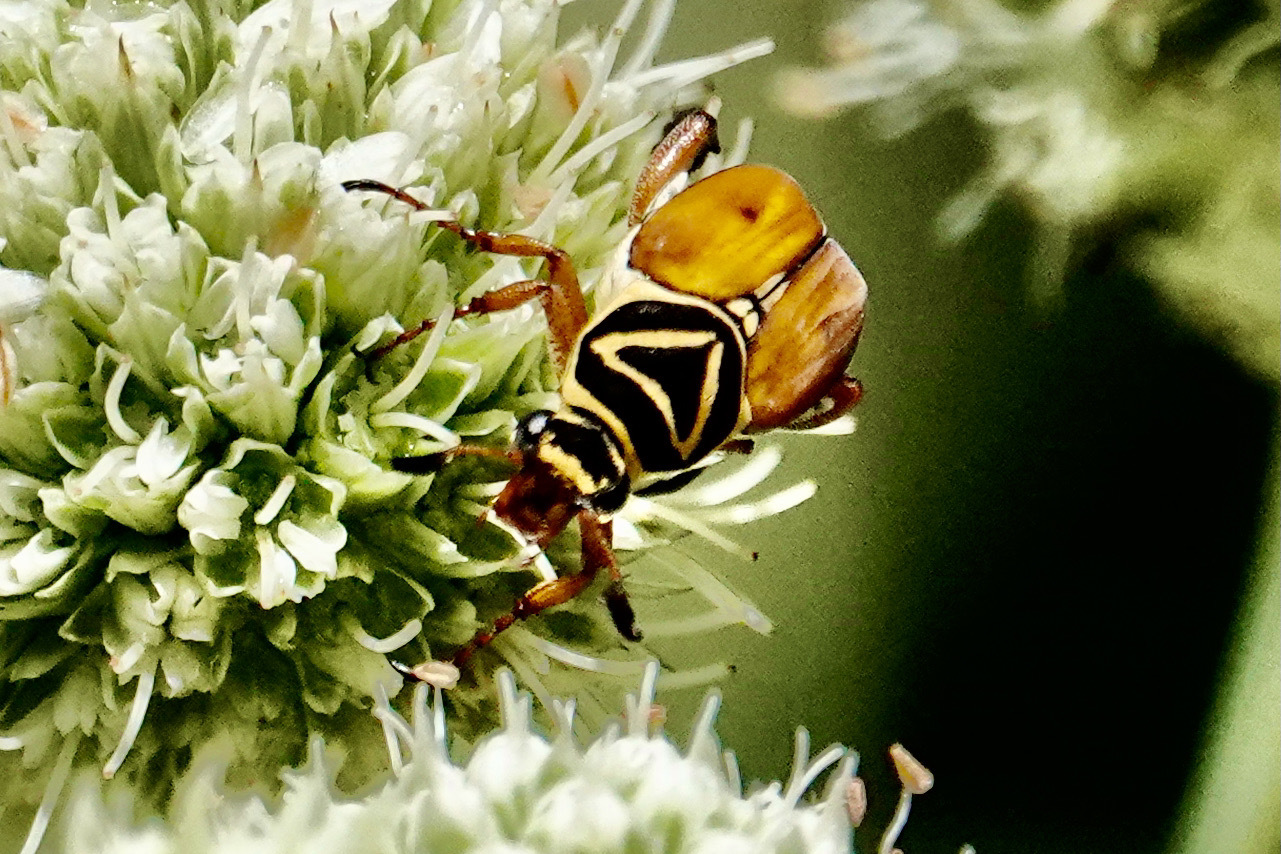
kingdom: Animalia
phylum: Arthropoda
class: Insecta
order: Coleoptera
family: Scarabaeidae
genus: Trigonopeltastes
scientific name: Trigonopeltastes delta
